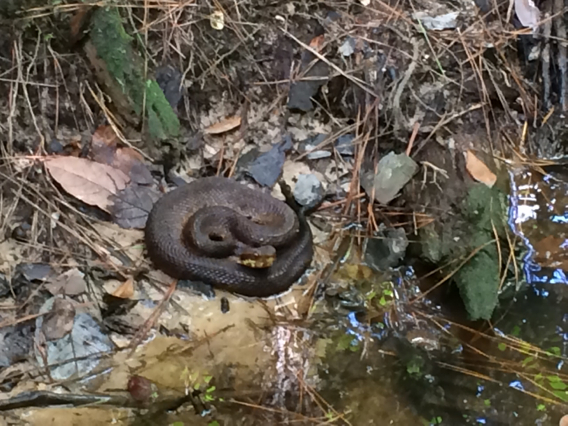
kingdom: Animalia
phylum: Chordata
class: Squamata
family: Viperidae
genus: Agkistrodon
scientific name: Agkistrodon piscivorus
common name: Cottonmouth
